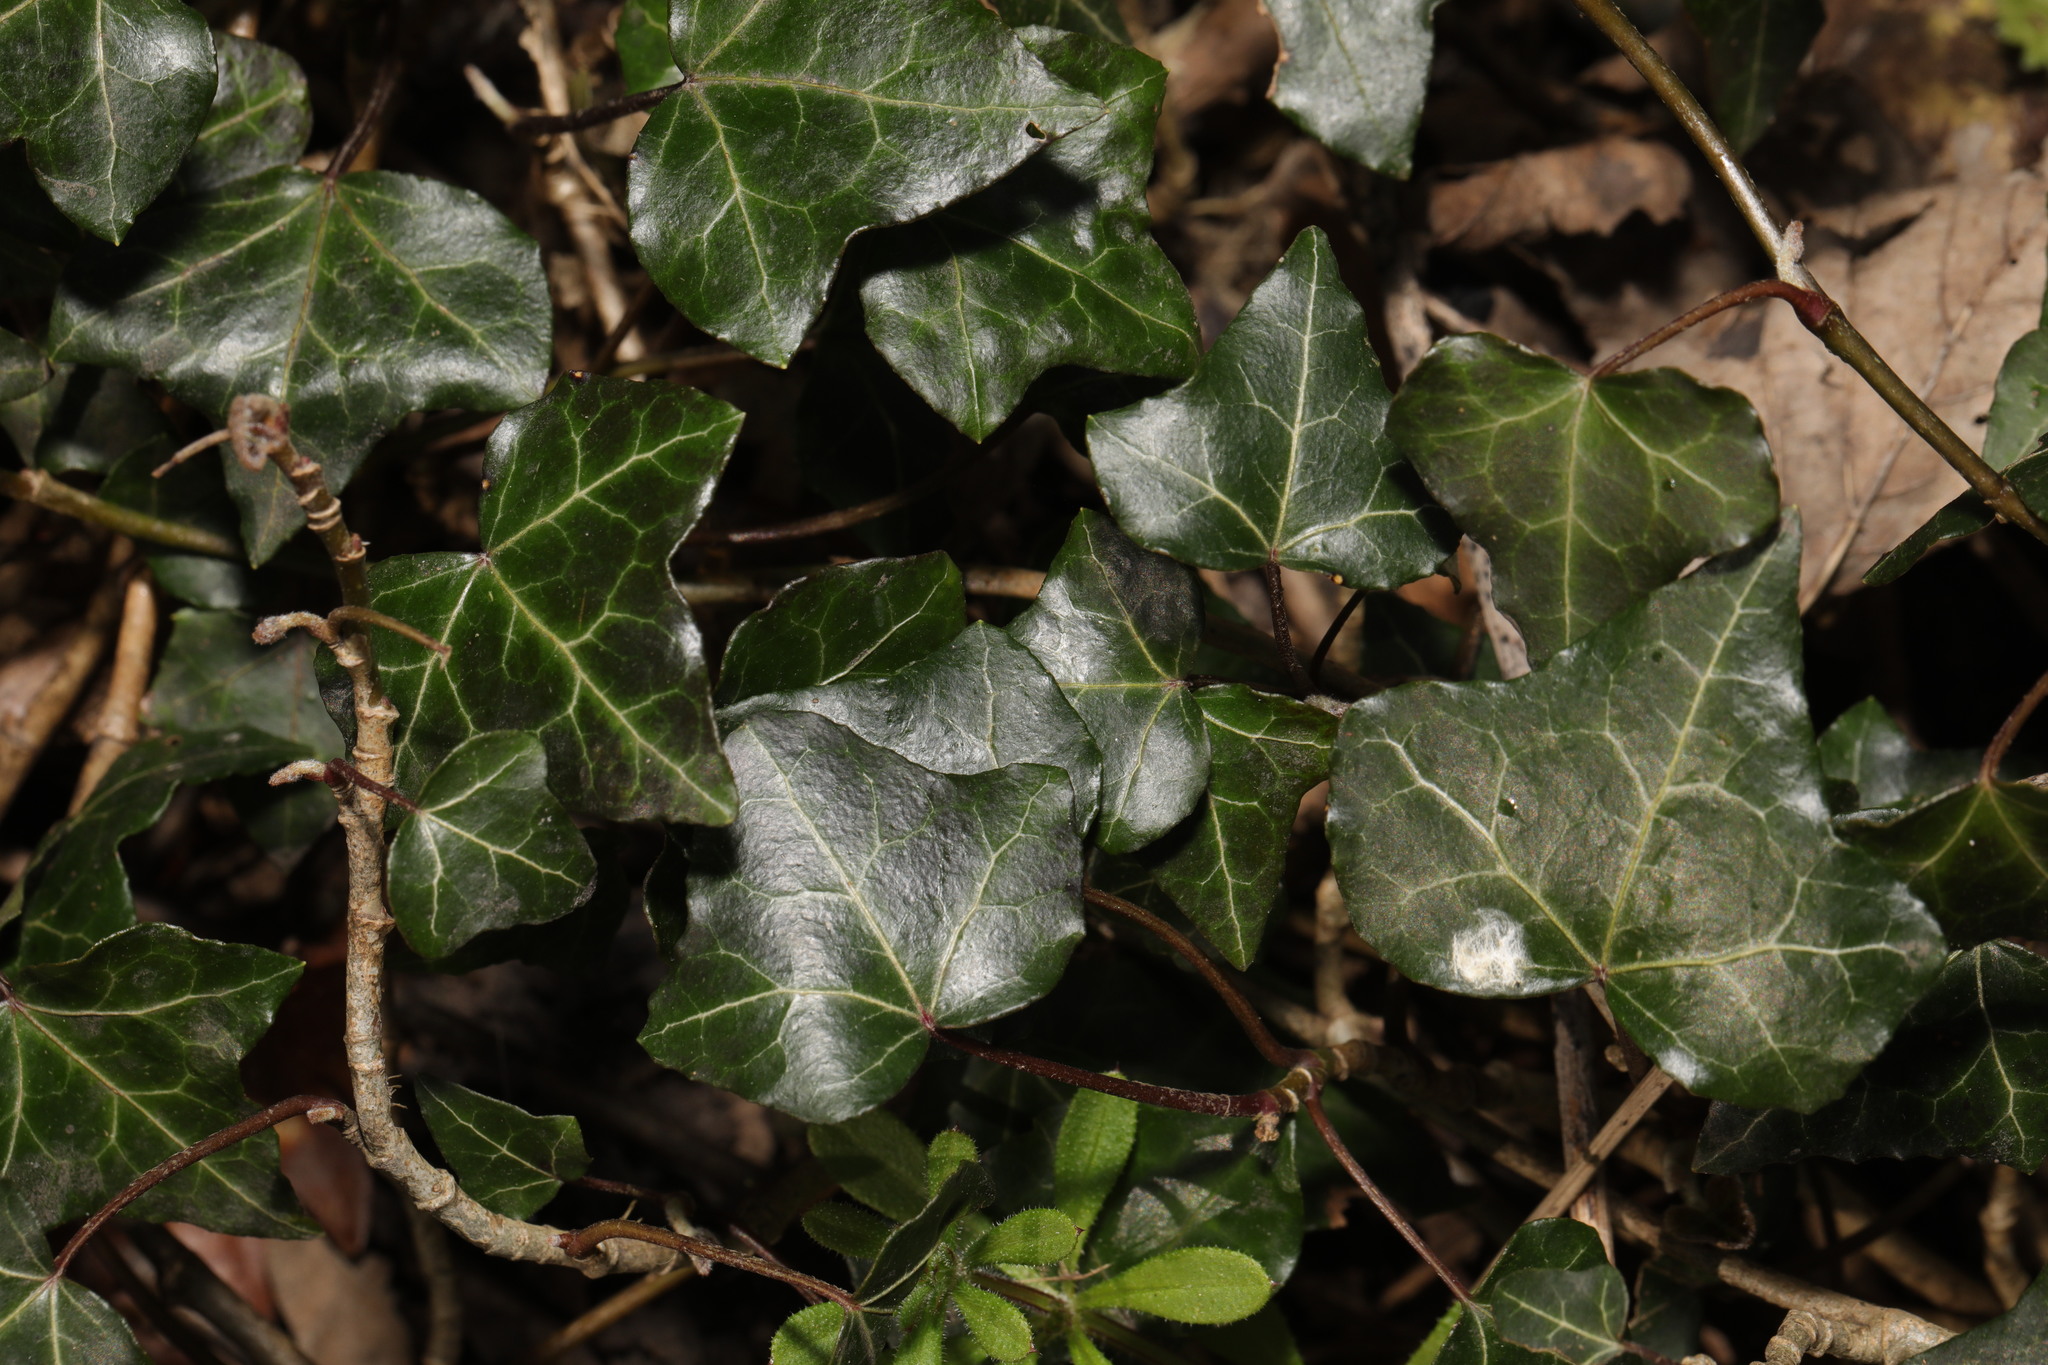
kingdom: Plantae
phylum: Tracheophyta
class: Magnoliopsida
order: Apiales
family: Araliaceae
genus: Hedera
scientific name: Hedera helix
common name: Ivy
